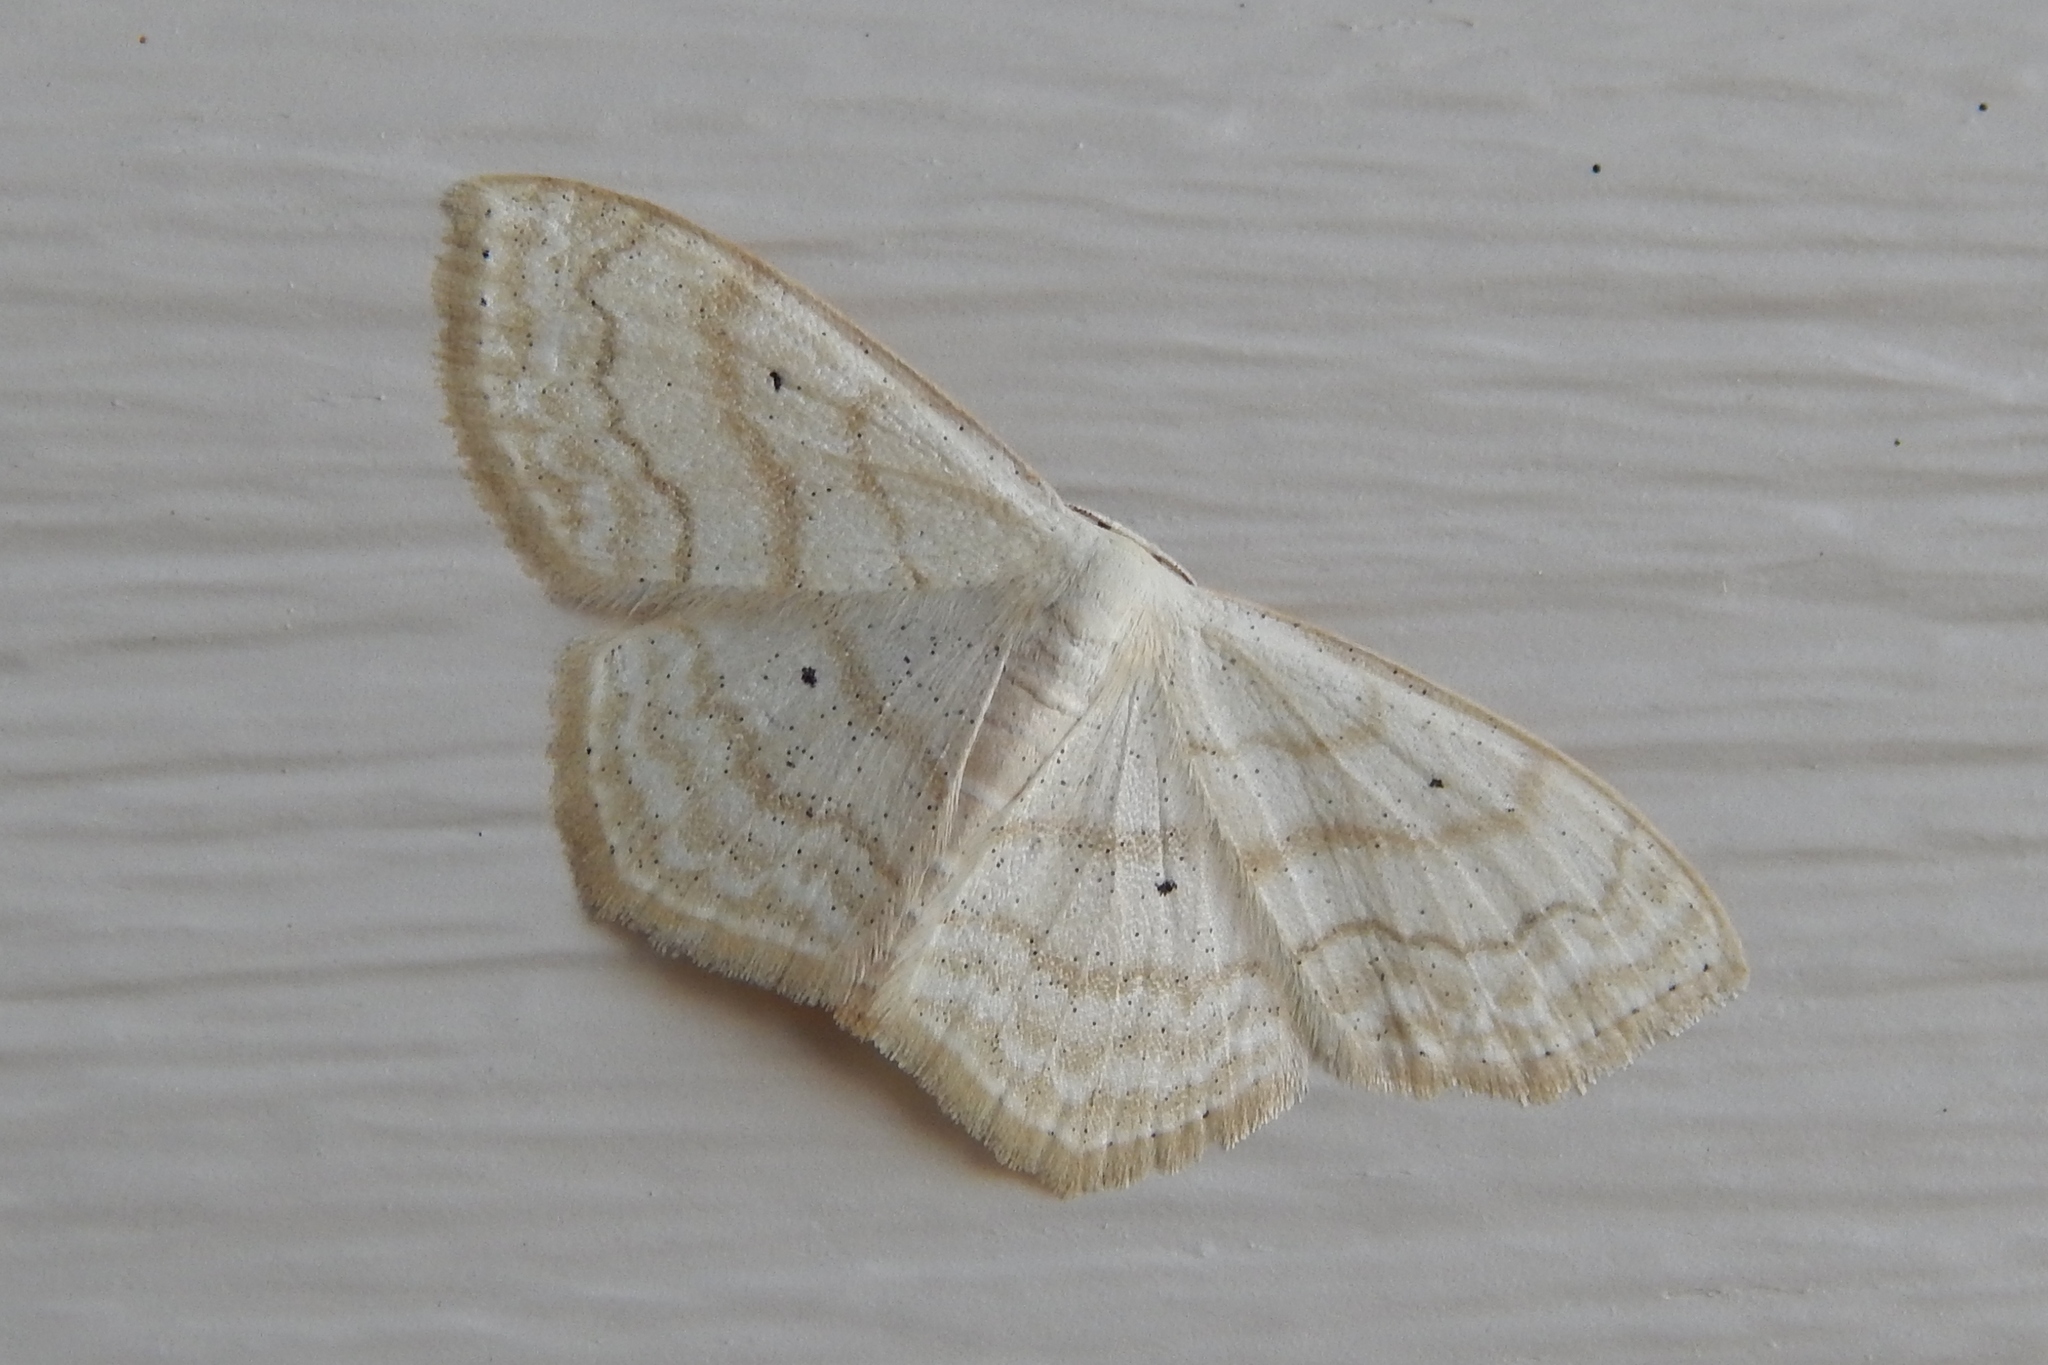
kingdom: Animalia
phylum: Arthropoda
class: Insecta
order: Lepidoptera
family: Geometridae
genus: Scopula
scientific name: Scopula limboundata
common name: Large lace border
